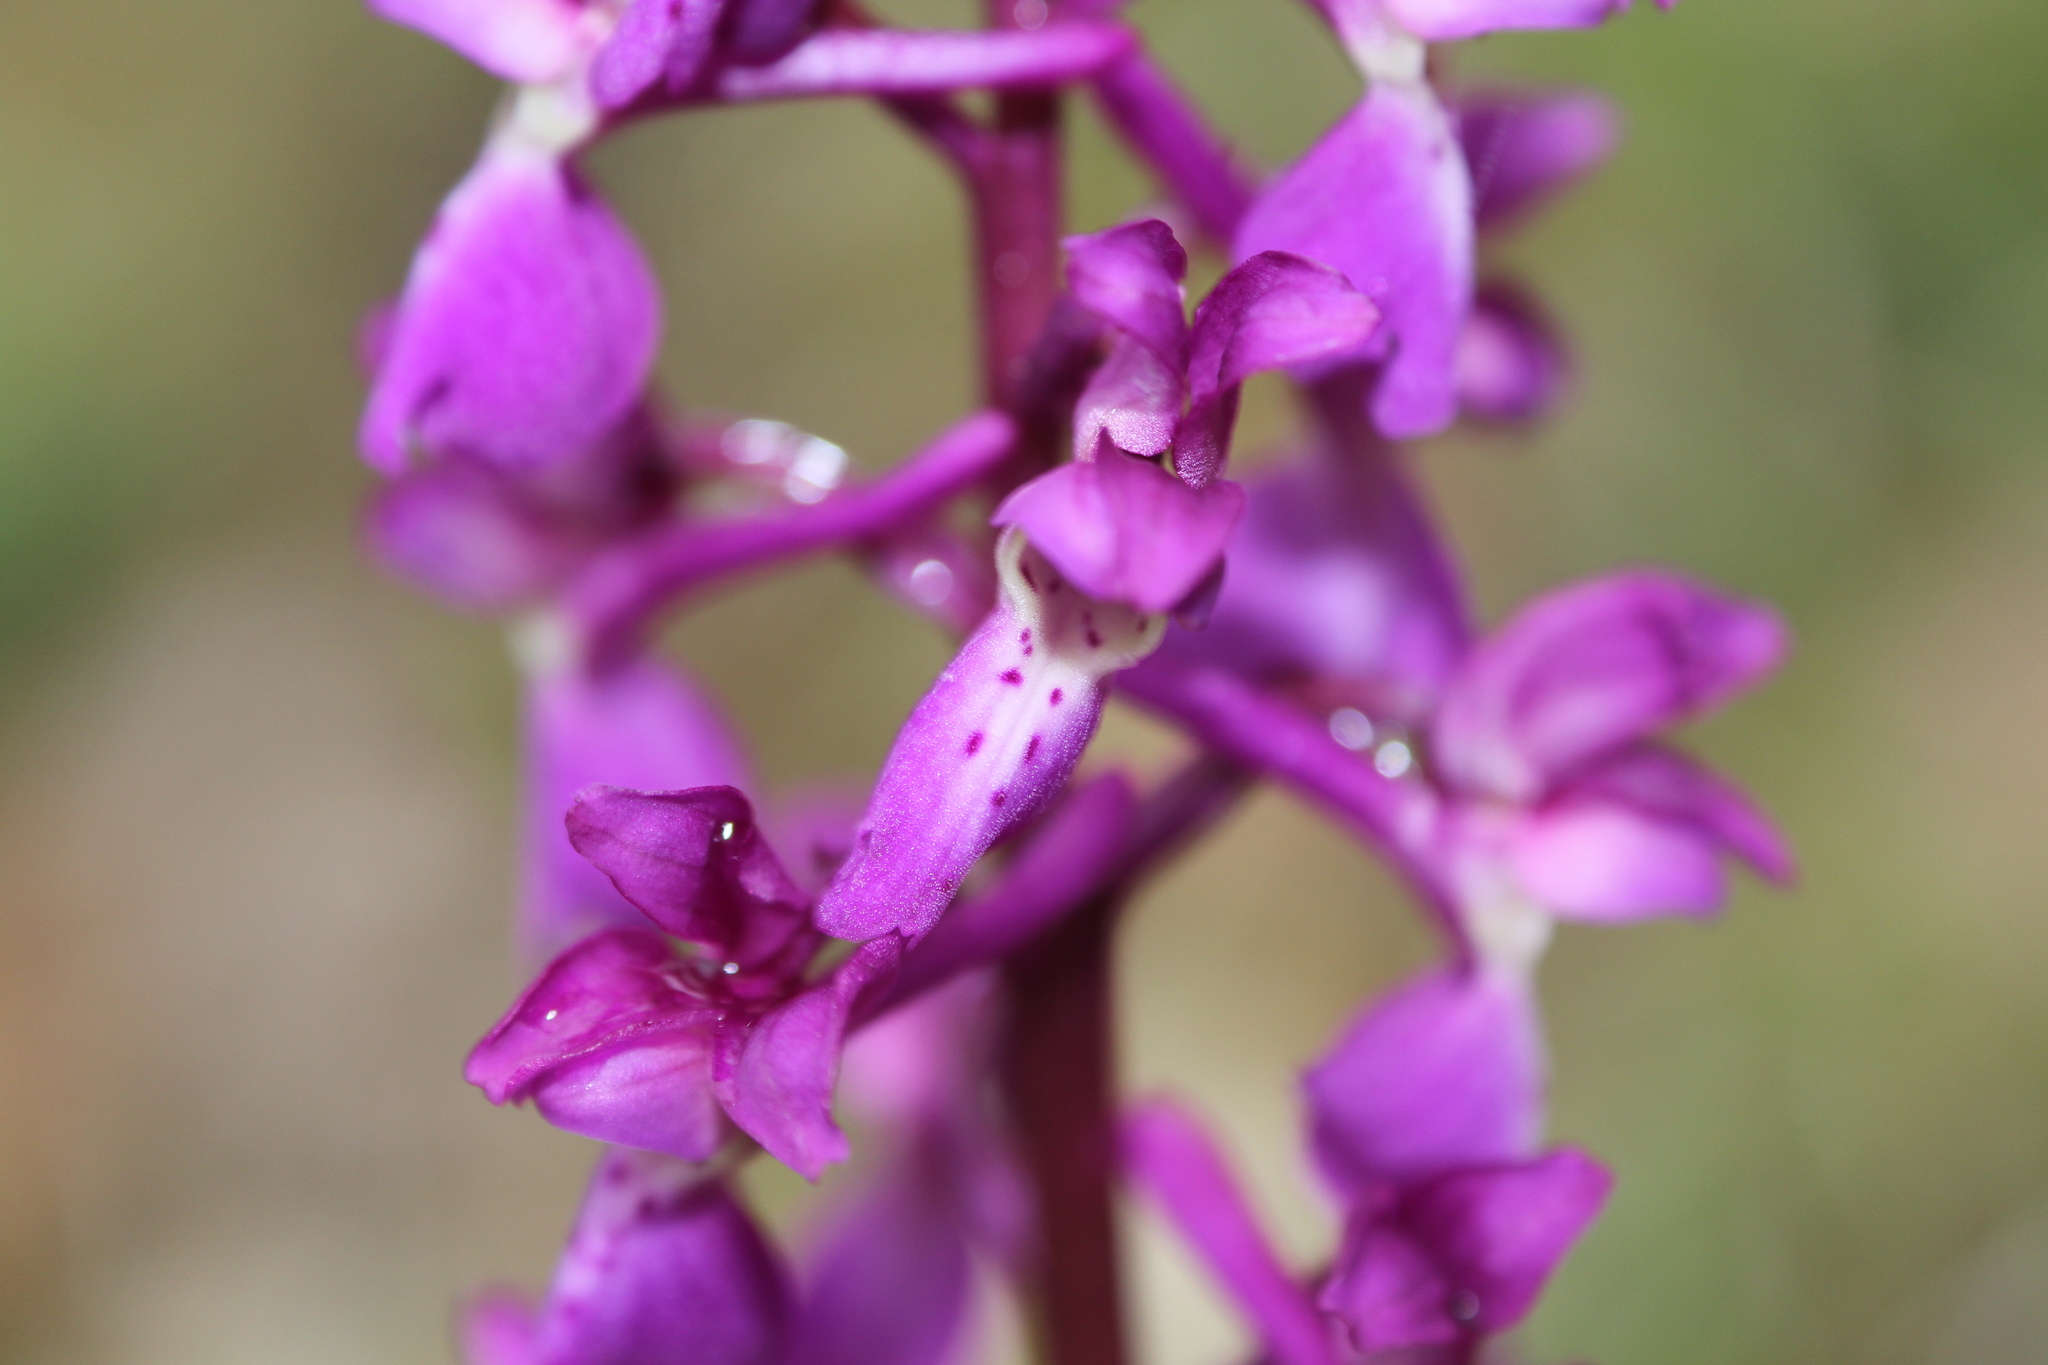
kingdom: Plantae
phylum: Tracheophyta
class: Liliopsida
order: Asparagales
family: Orchidaceae
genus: Orchis
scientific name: Orchis mascula
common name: Early-purple orchid
